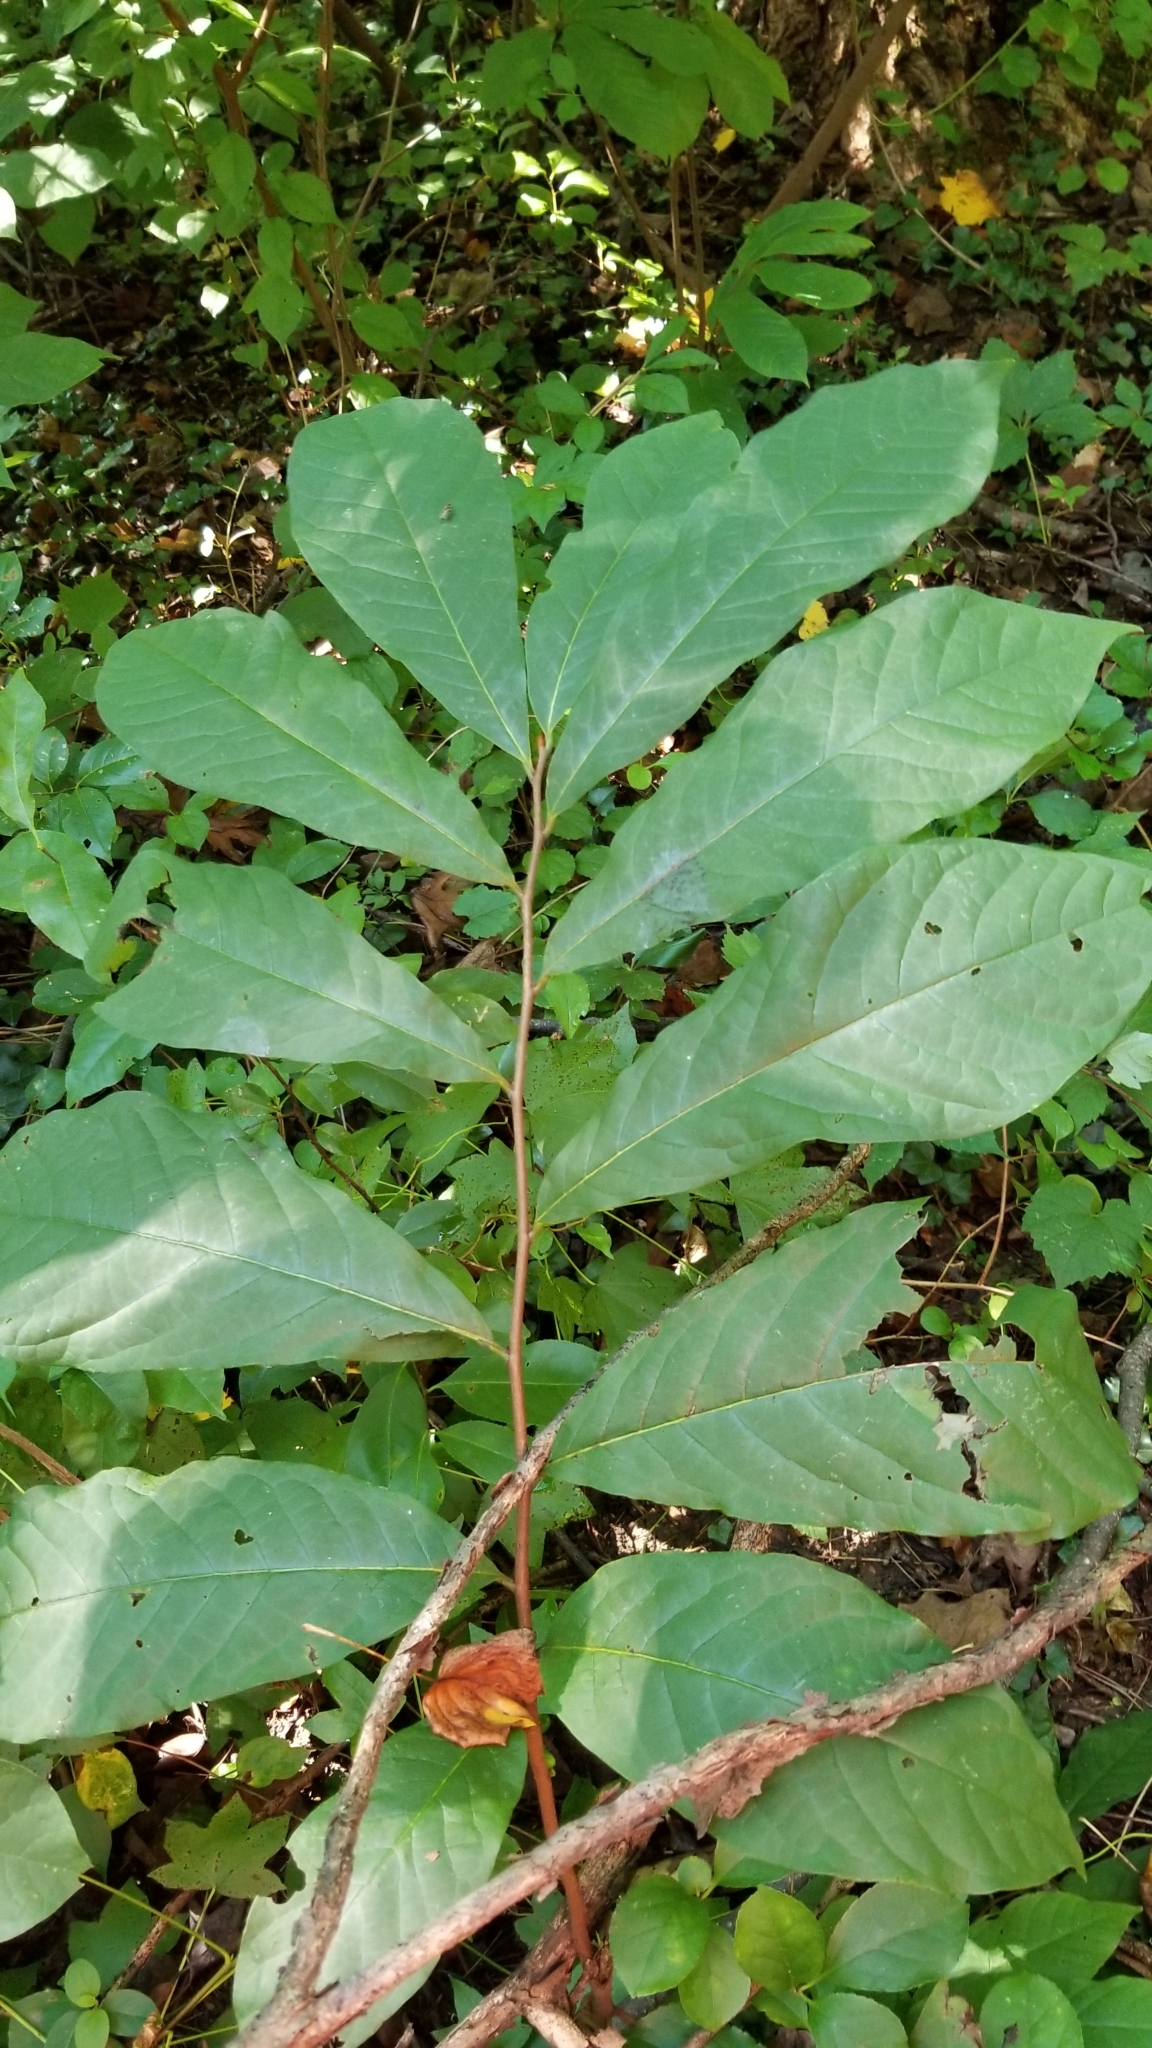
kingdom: Plantae
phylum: Tracheophyta
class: Magnoliopsida
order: Magnoliales
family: Annonaceae
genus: Asimina
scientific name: Asimina triloba
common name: Dog-banana
